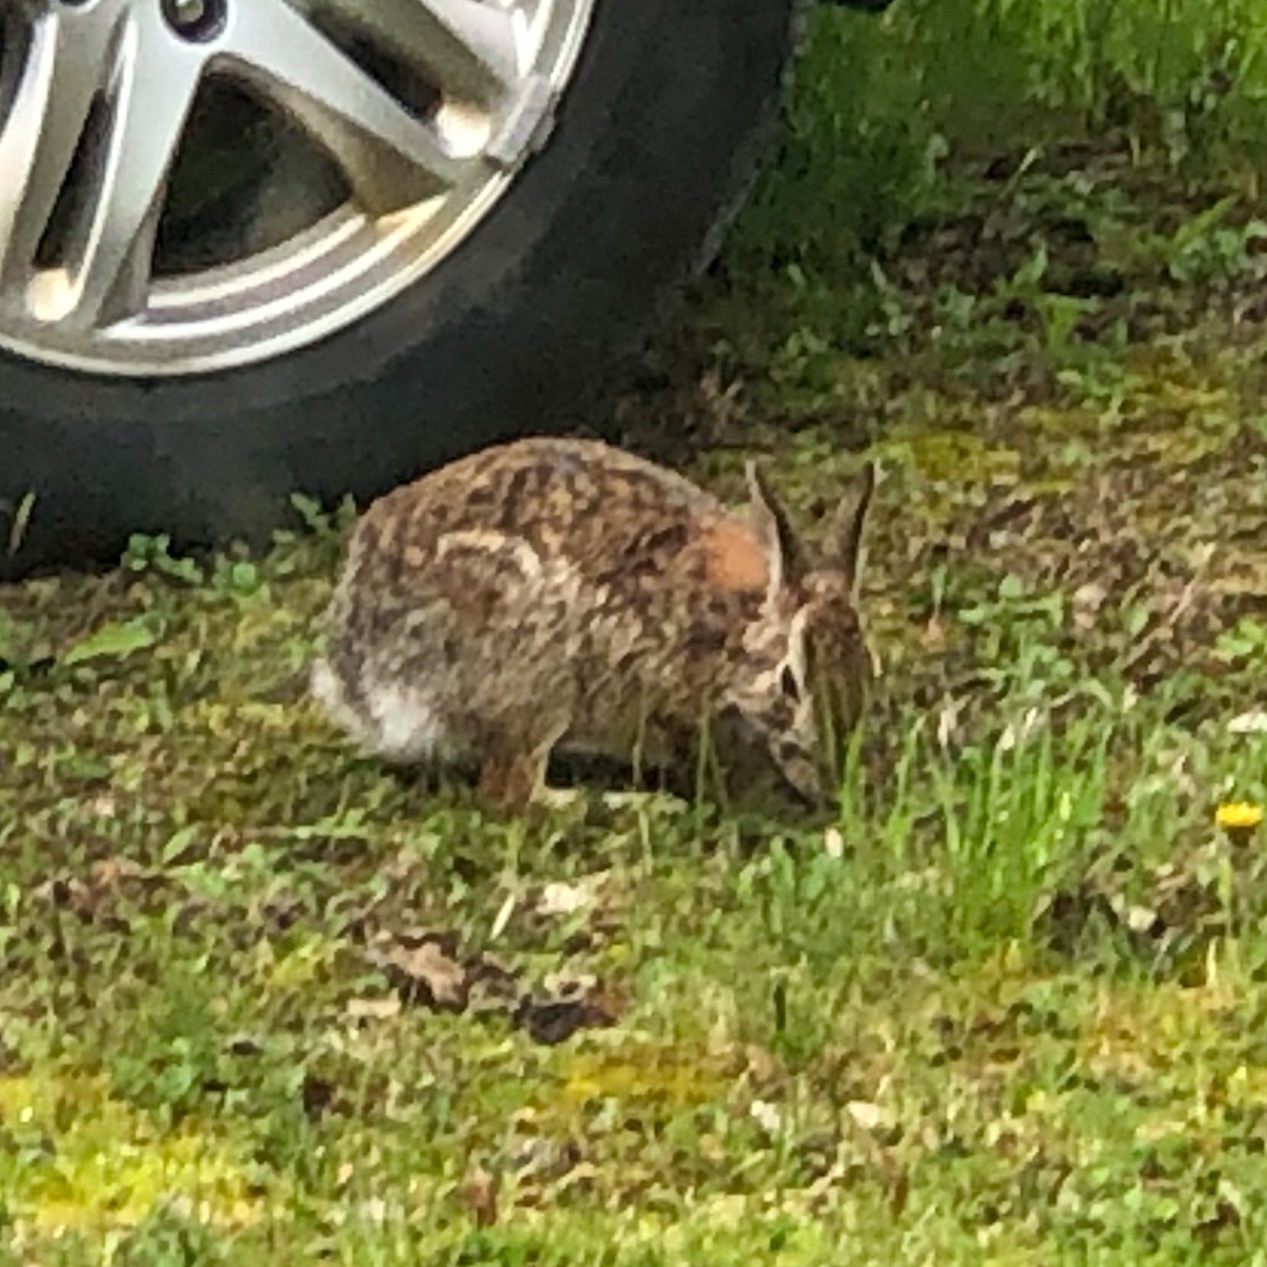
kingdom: Animalia
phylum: Chordata
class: Mammalia
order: Lagomorpha
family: Leporidae
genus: Sylvilagus
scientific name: Sylvilagus floridanus
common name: Eastern cottontail
